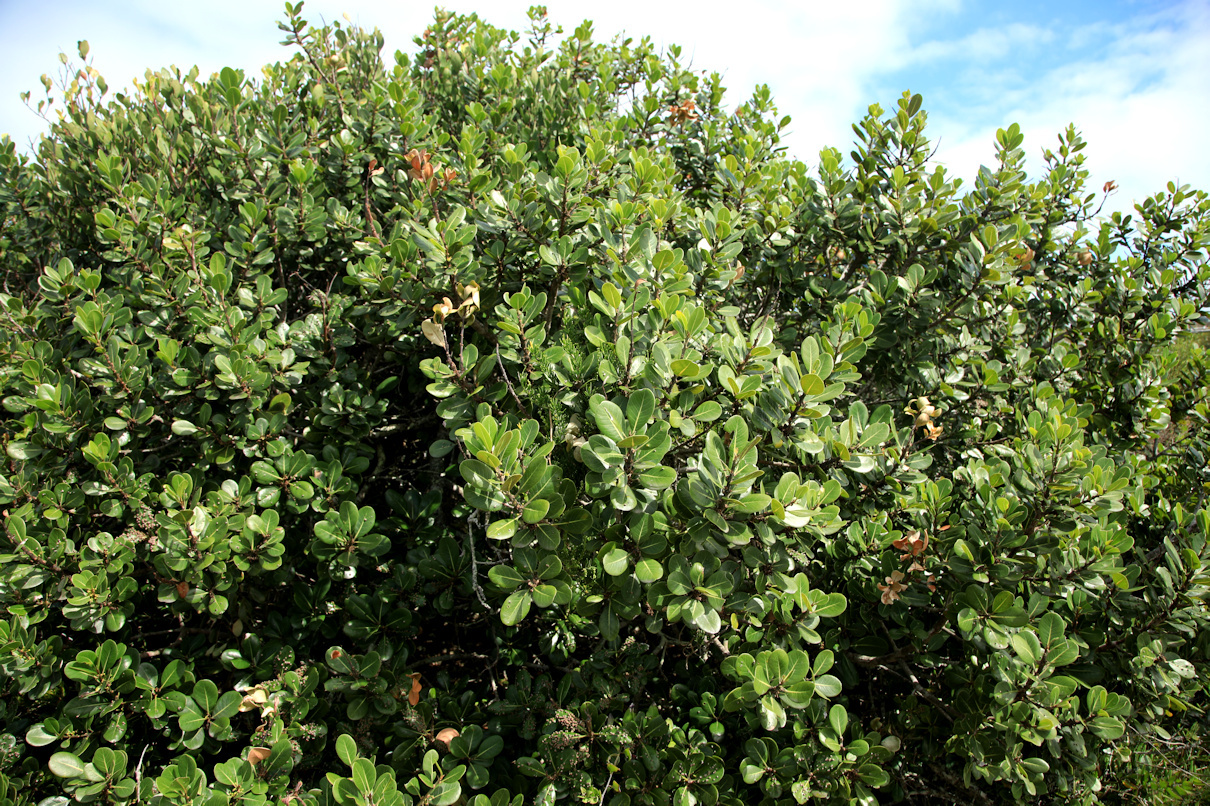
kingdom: Plantae
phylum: Tracheophyta
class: Magnoliopsida
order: Ericales
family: Sapotaceae
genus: Sideroxylon
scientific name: Sideroxylon inerme
